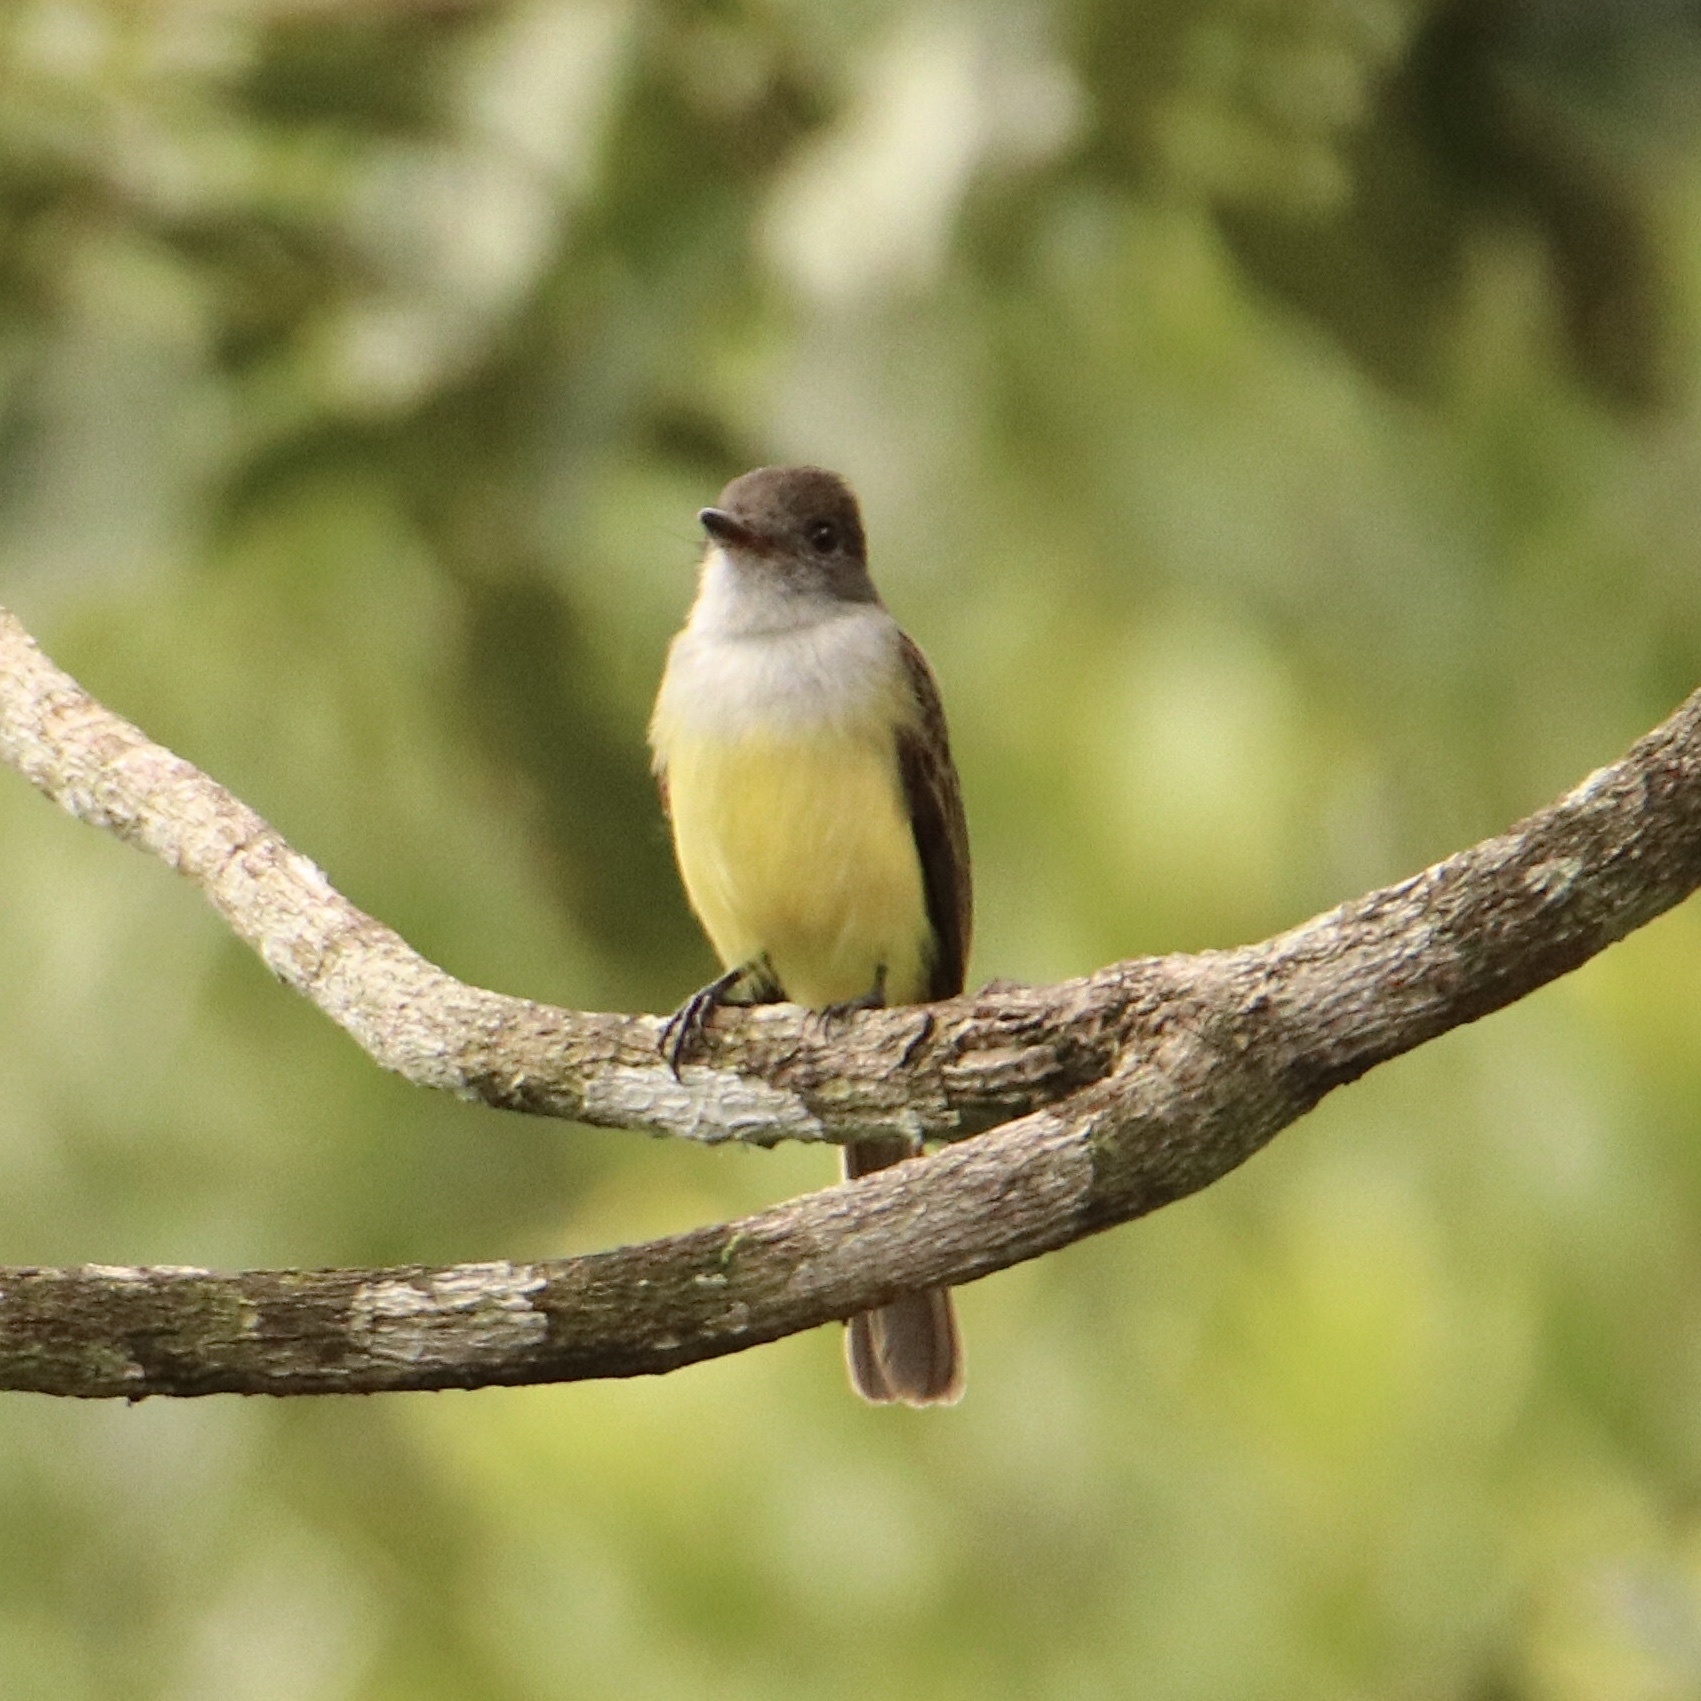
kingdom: Animalia
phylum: Chordata
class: Aves
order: Passeriformes
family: Tyrannidae
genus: Myiarchus
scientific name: Myiarchus tuberculifer
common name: Dusky-capped flycatcher
